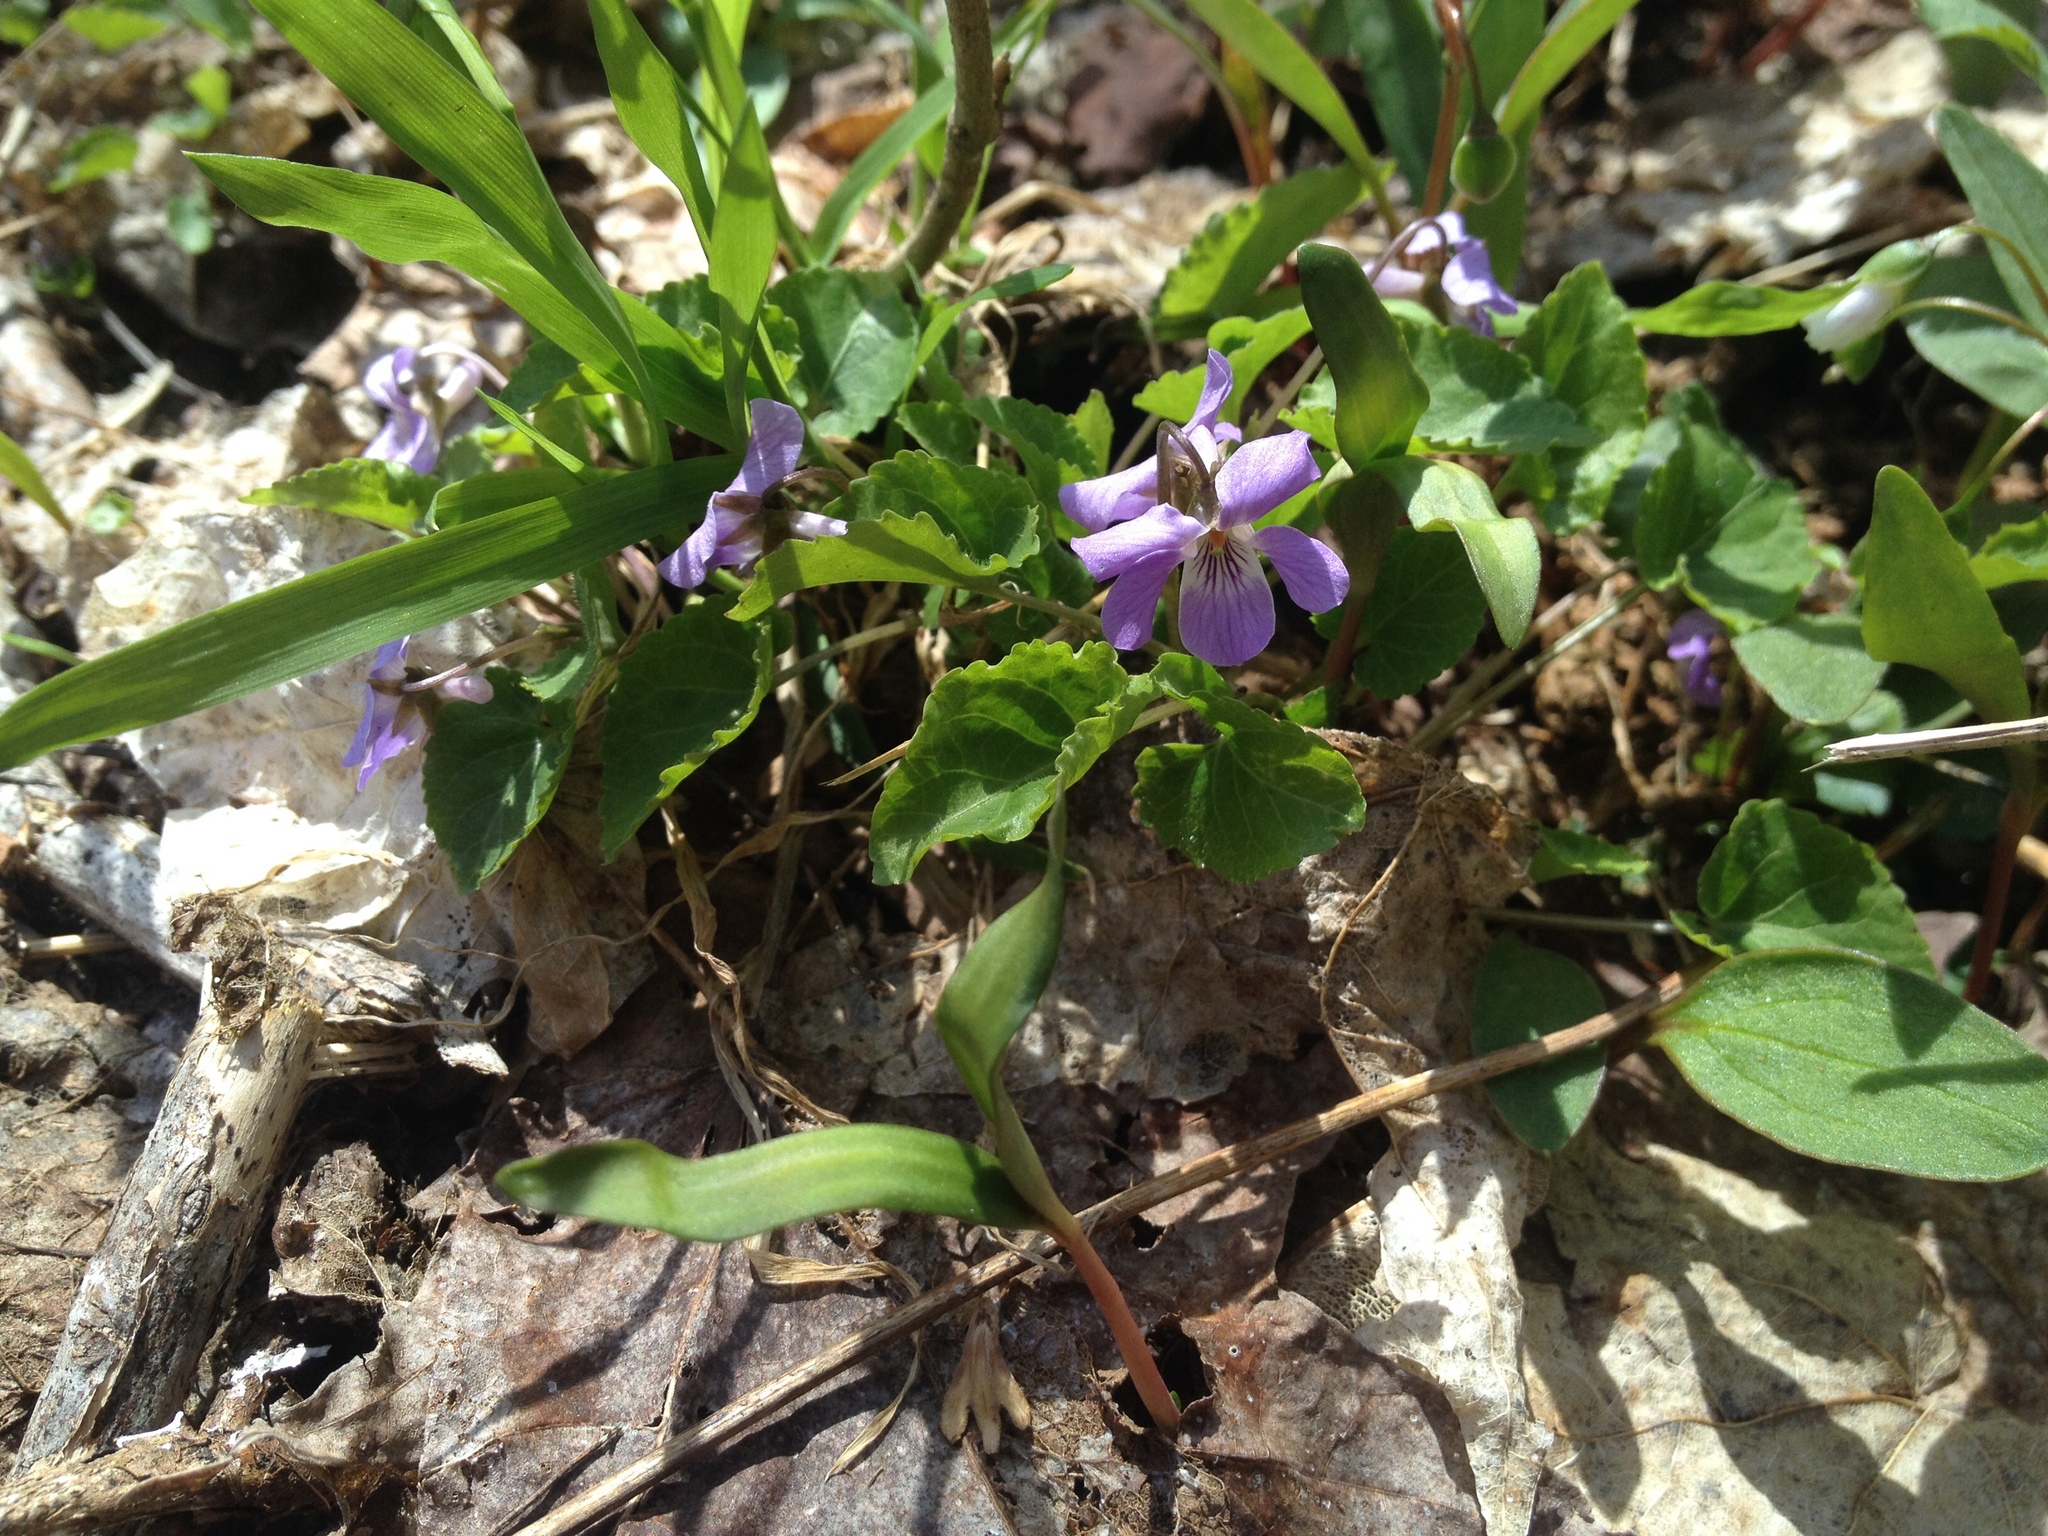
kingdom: Plantae
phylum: Tracheophyta
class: Magnoliopsida
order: Malpighiales
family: Violaceae
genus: Viola
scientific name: Viola selkirkii
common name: Selkirk's violet
